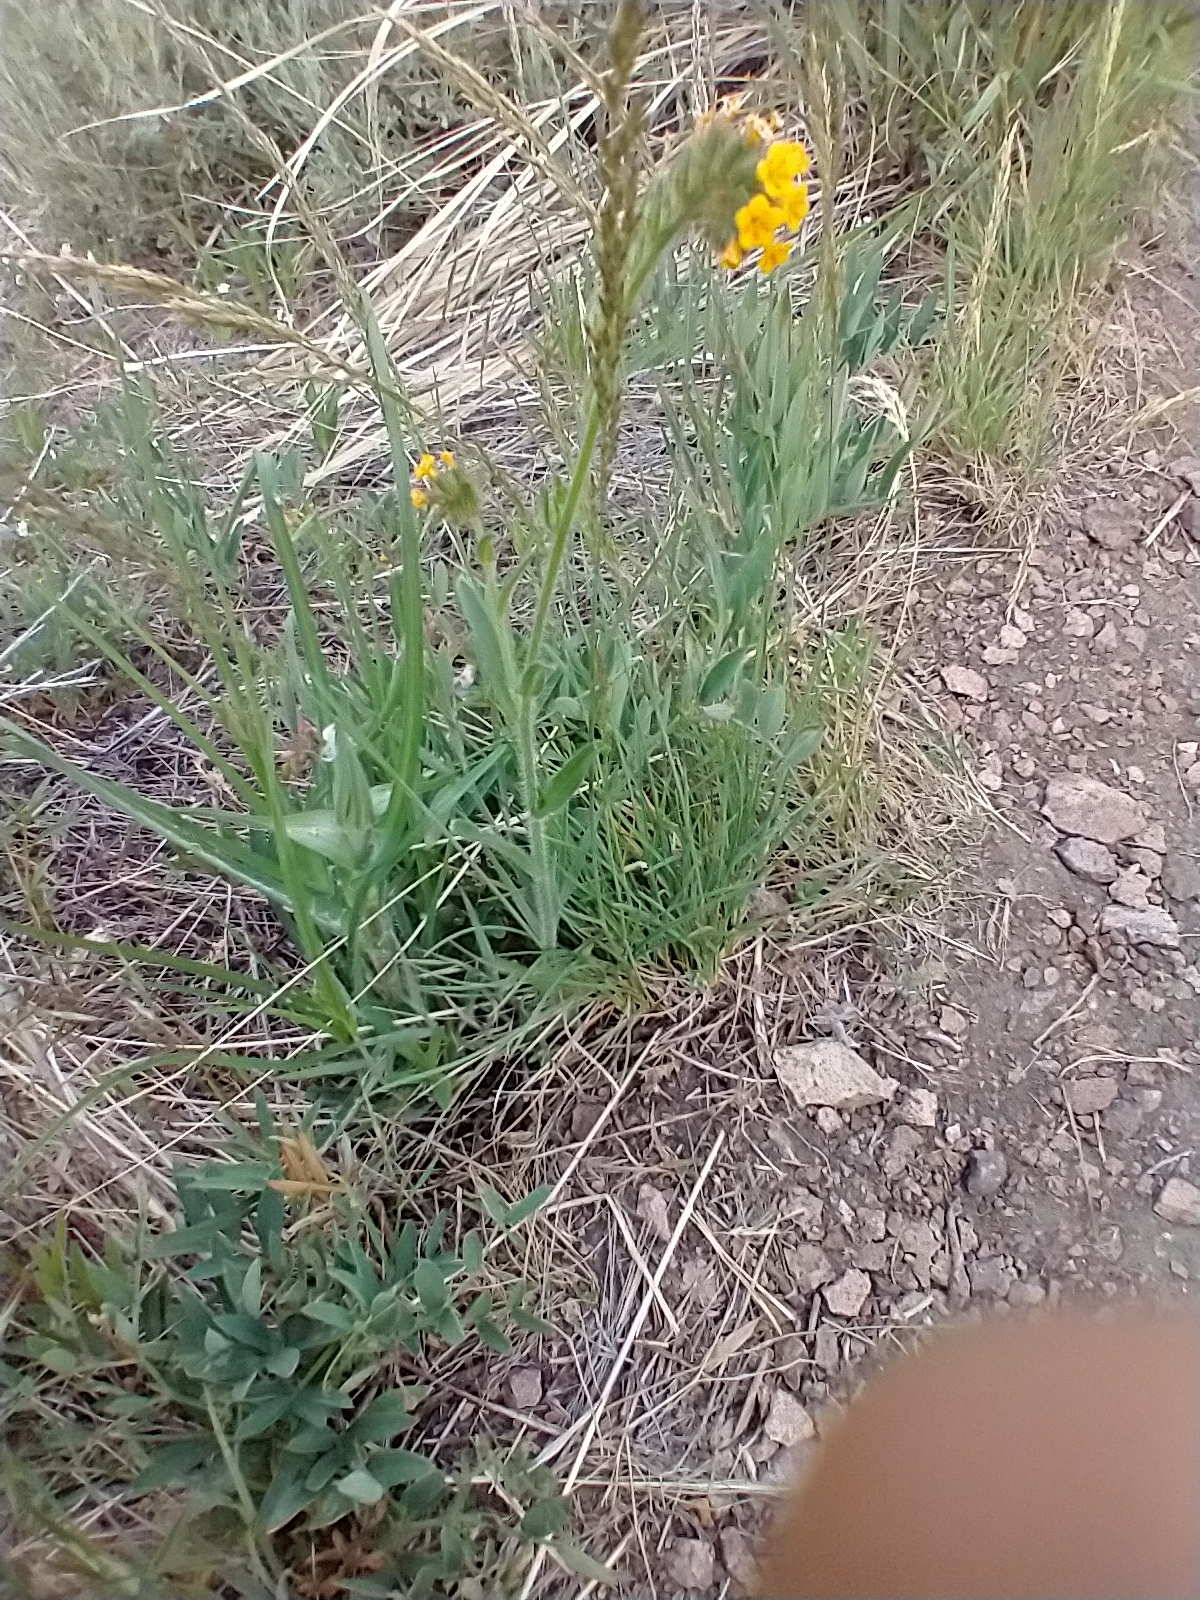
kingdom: Plantae
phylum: Tracheophyta
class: Magnoliopsida
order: Boraginales
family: Boraginaceae
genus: Amsinckia
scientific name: Amsinckia tessellata
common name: Tessellate fiddleneck
